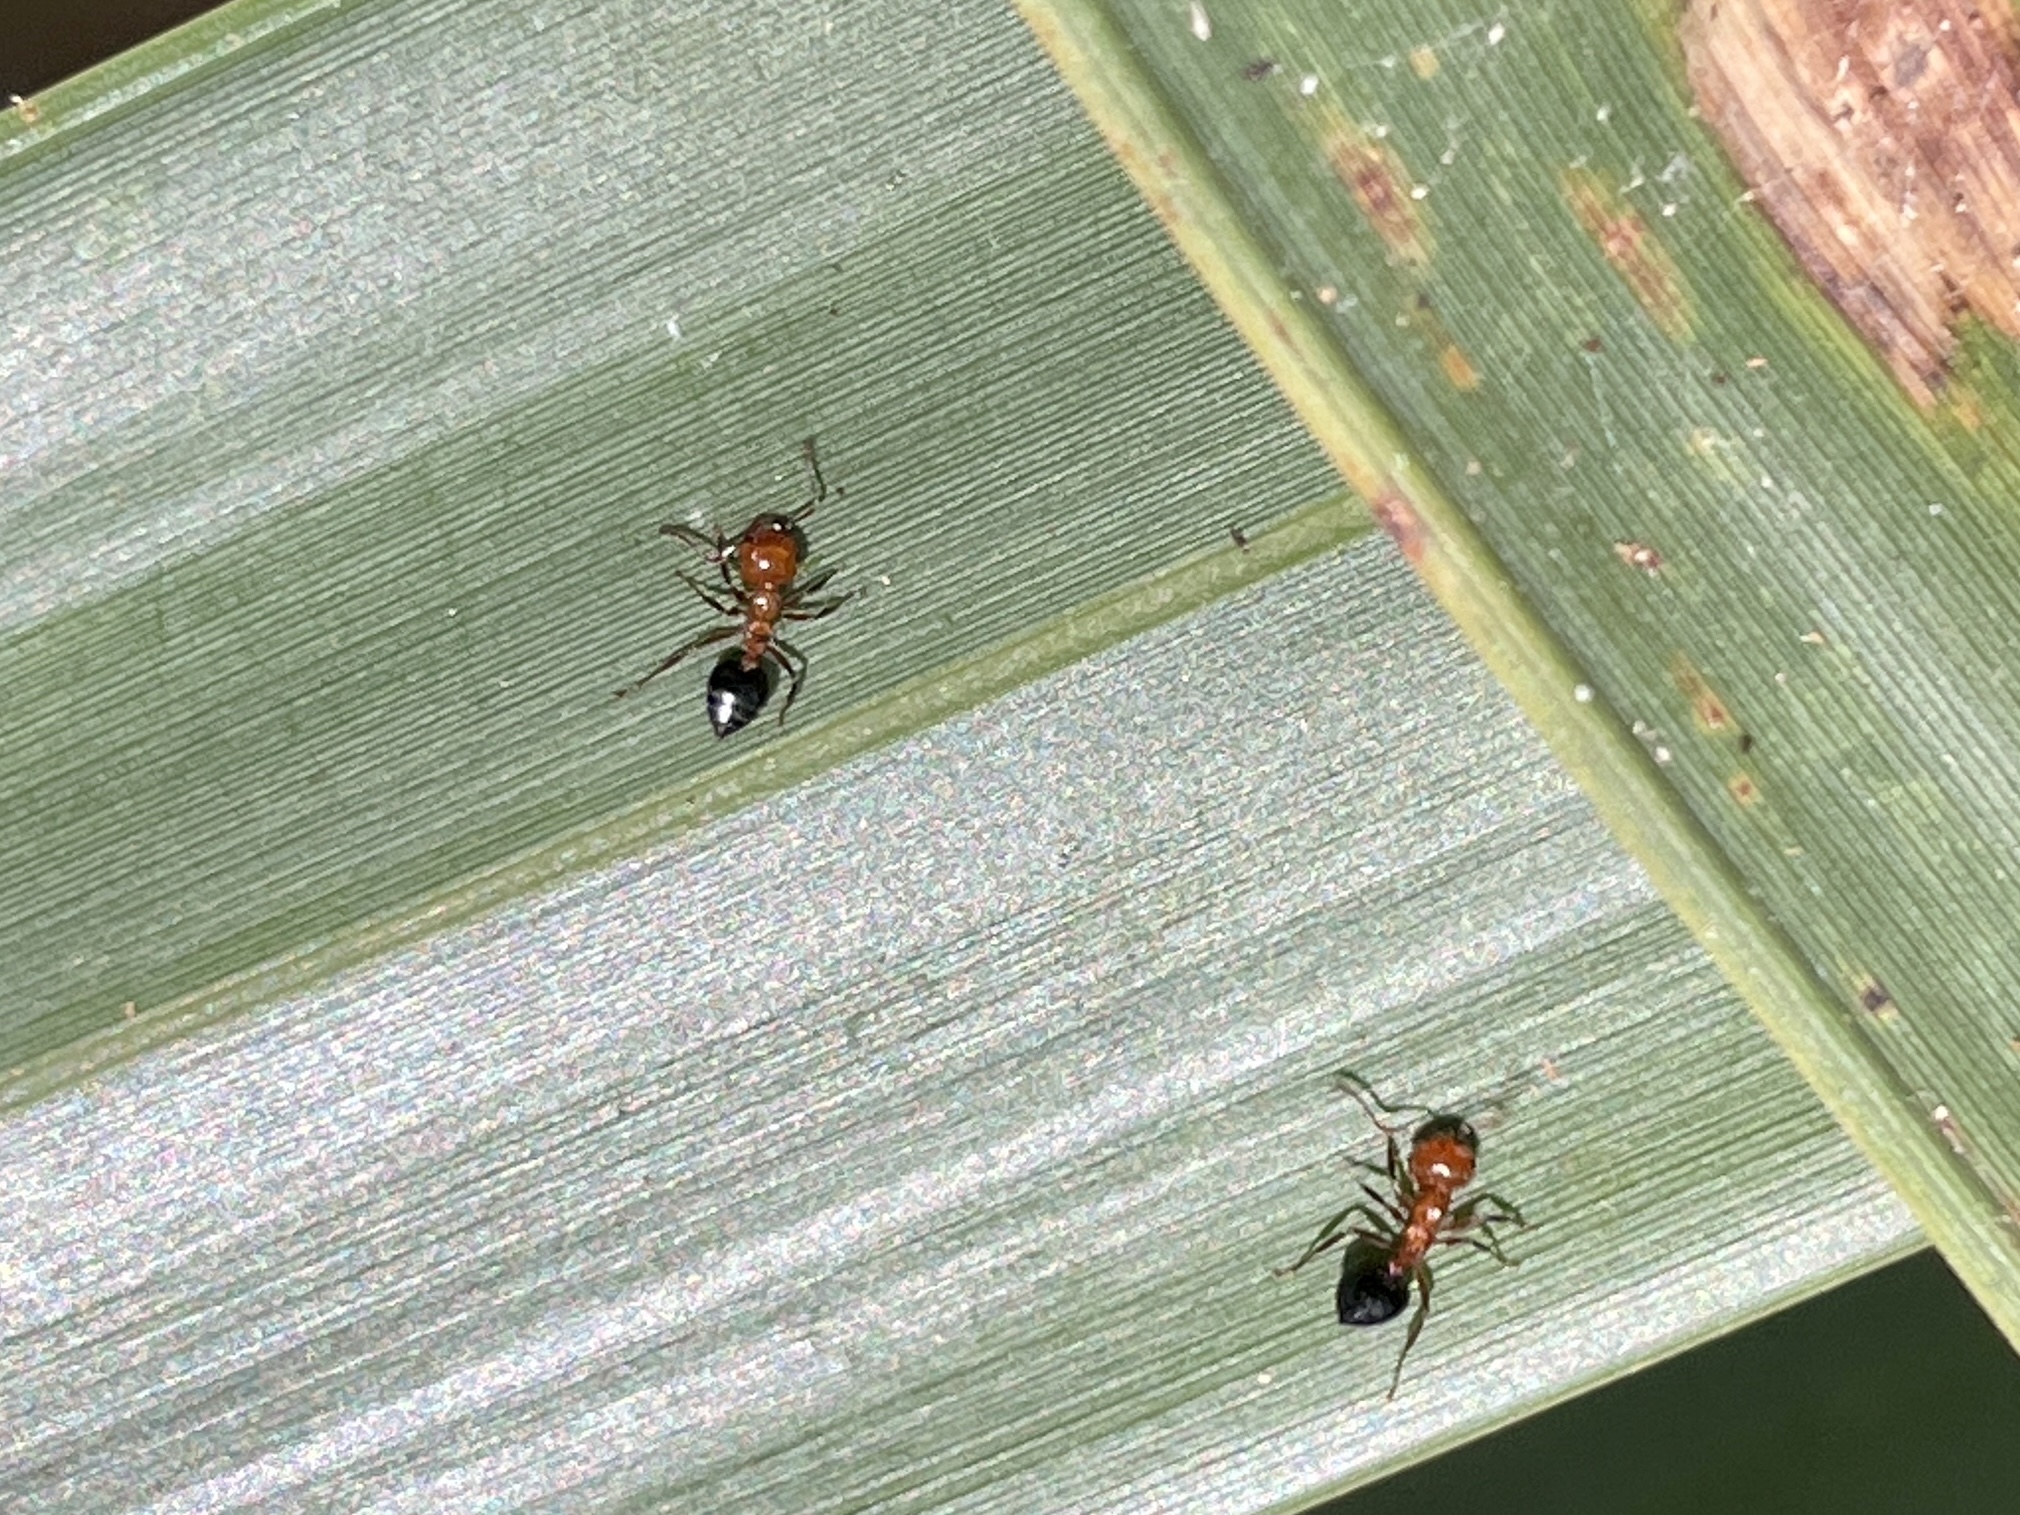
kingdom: Animalia
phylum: Arthropoda
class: Insecta
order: Hymenoptera
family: Formicidae
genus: Crematogaster
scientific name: Crematogaster laeviuscula
